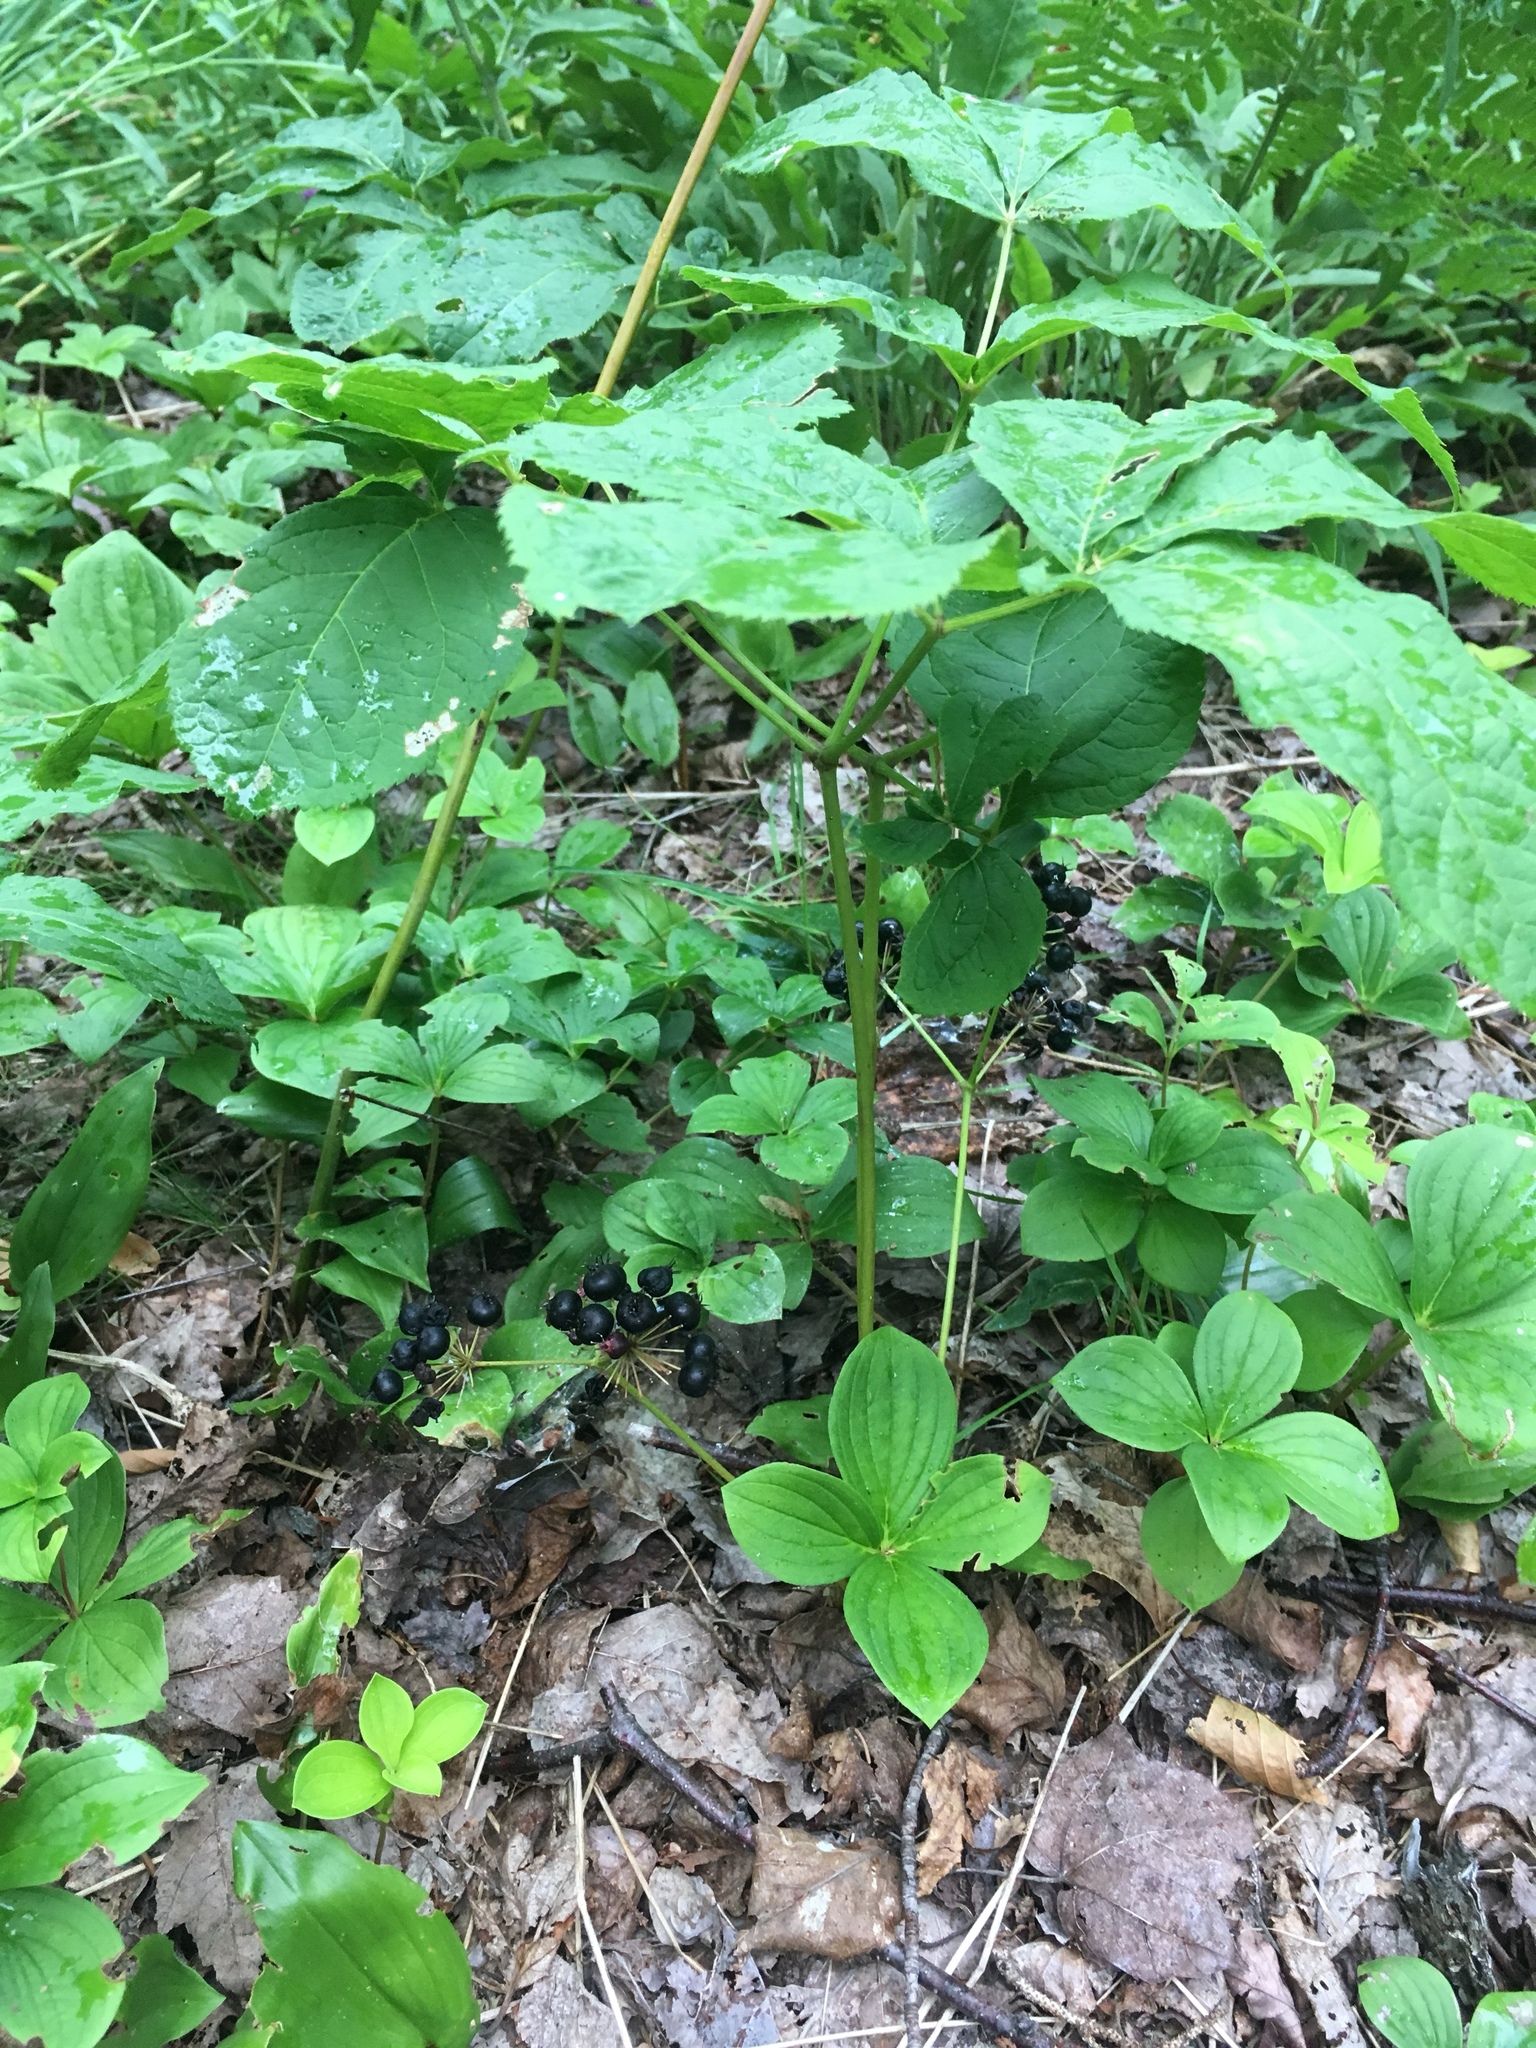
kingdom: Plantae
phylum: Tracheophyta
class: Magnoliopsida
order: Apiales
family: Araliaceae
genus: Aralia
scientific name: Aralia nudicaulis
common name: Wild sarsaparilla
